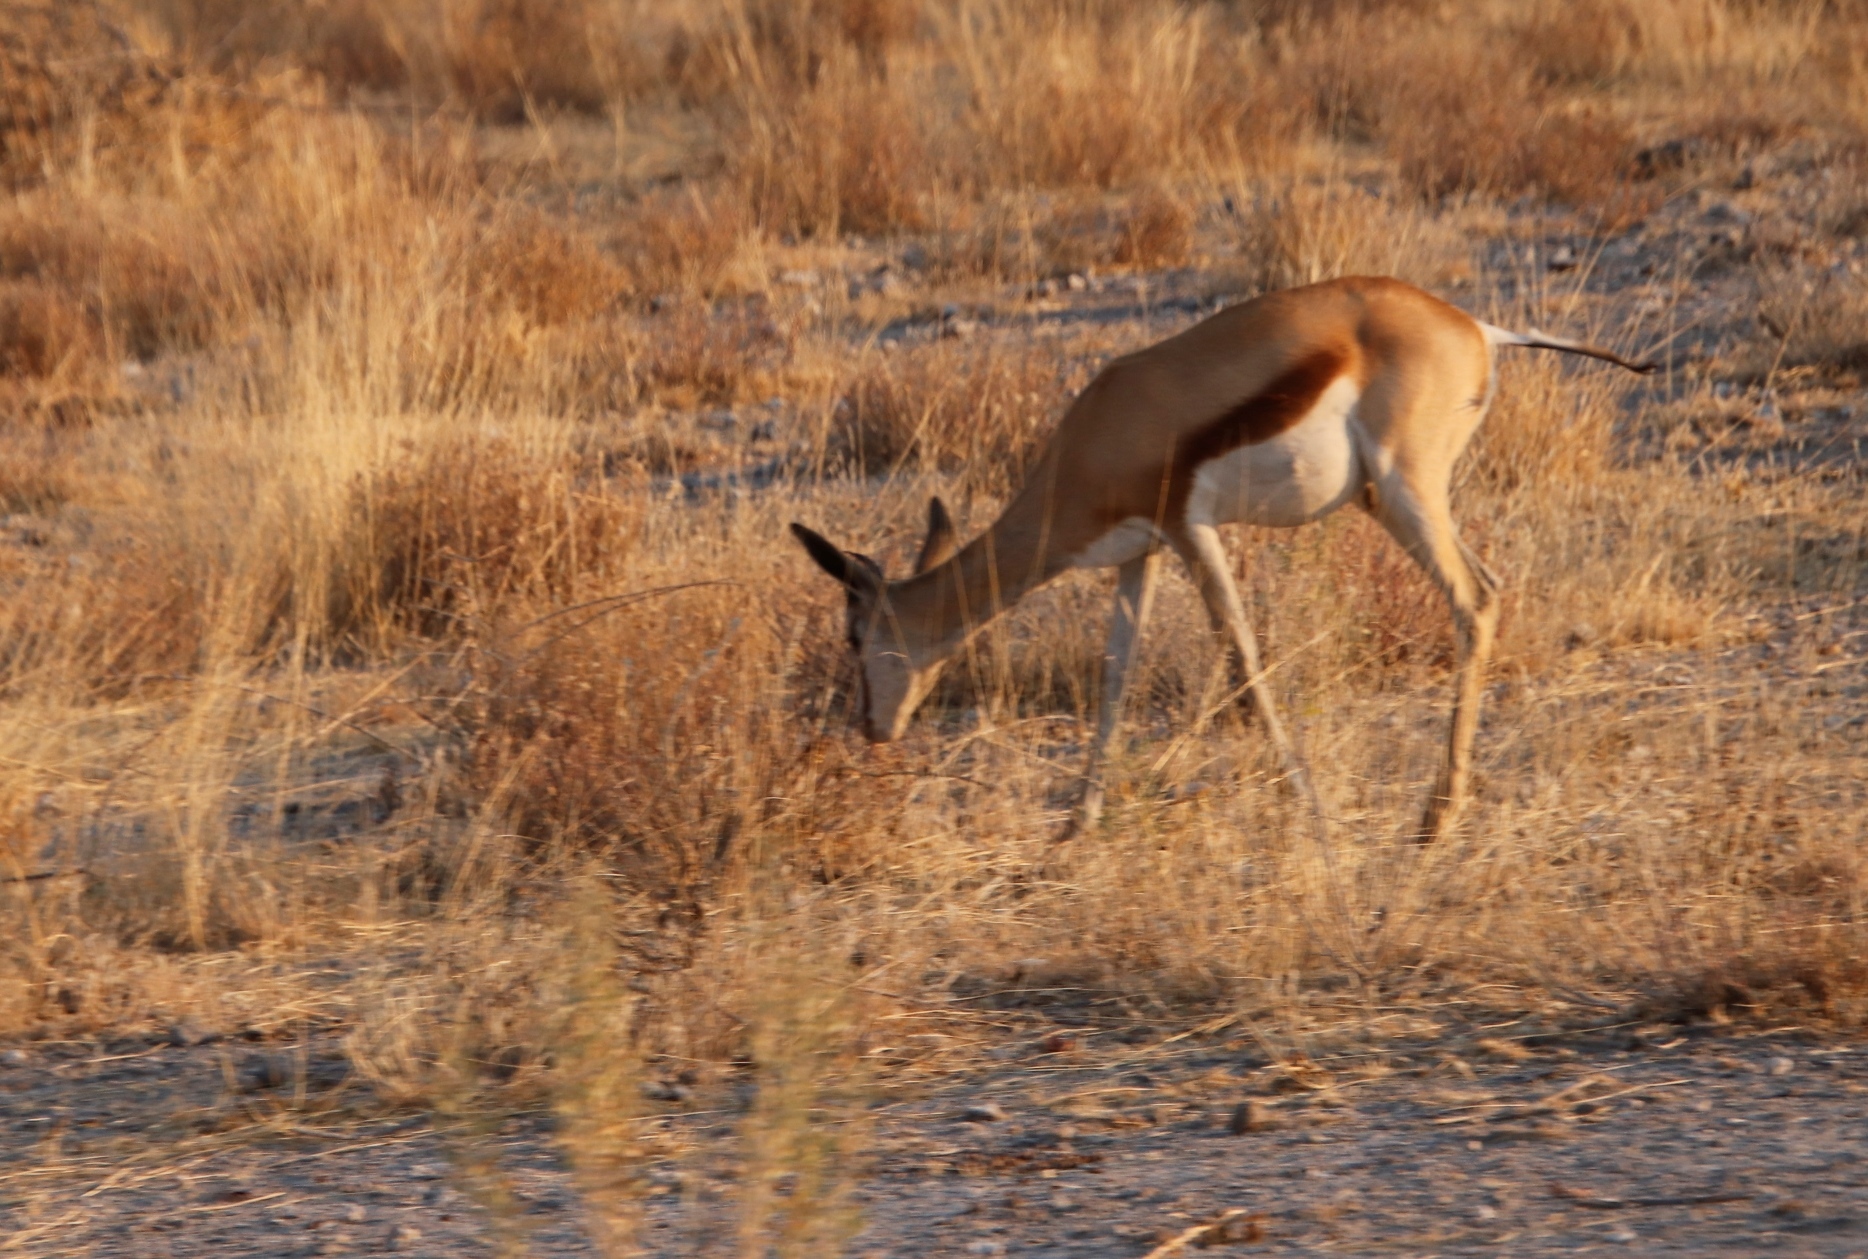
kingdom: Animalia
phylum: Chordata
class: Mammalia
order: Artiodactyla
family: Bovidae
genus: Antidorcas
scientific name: Antidorcas marsupialis
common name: Springbok
